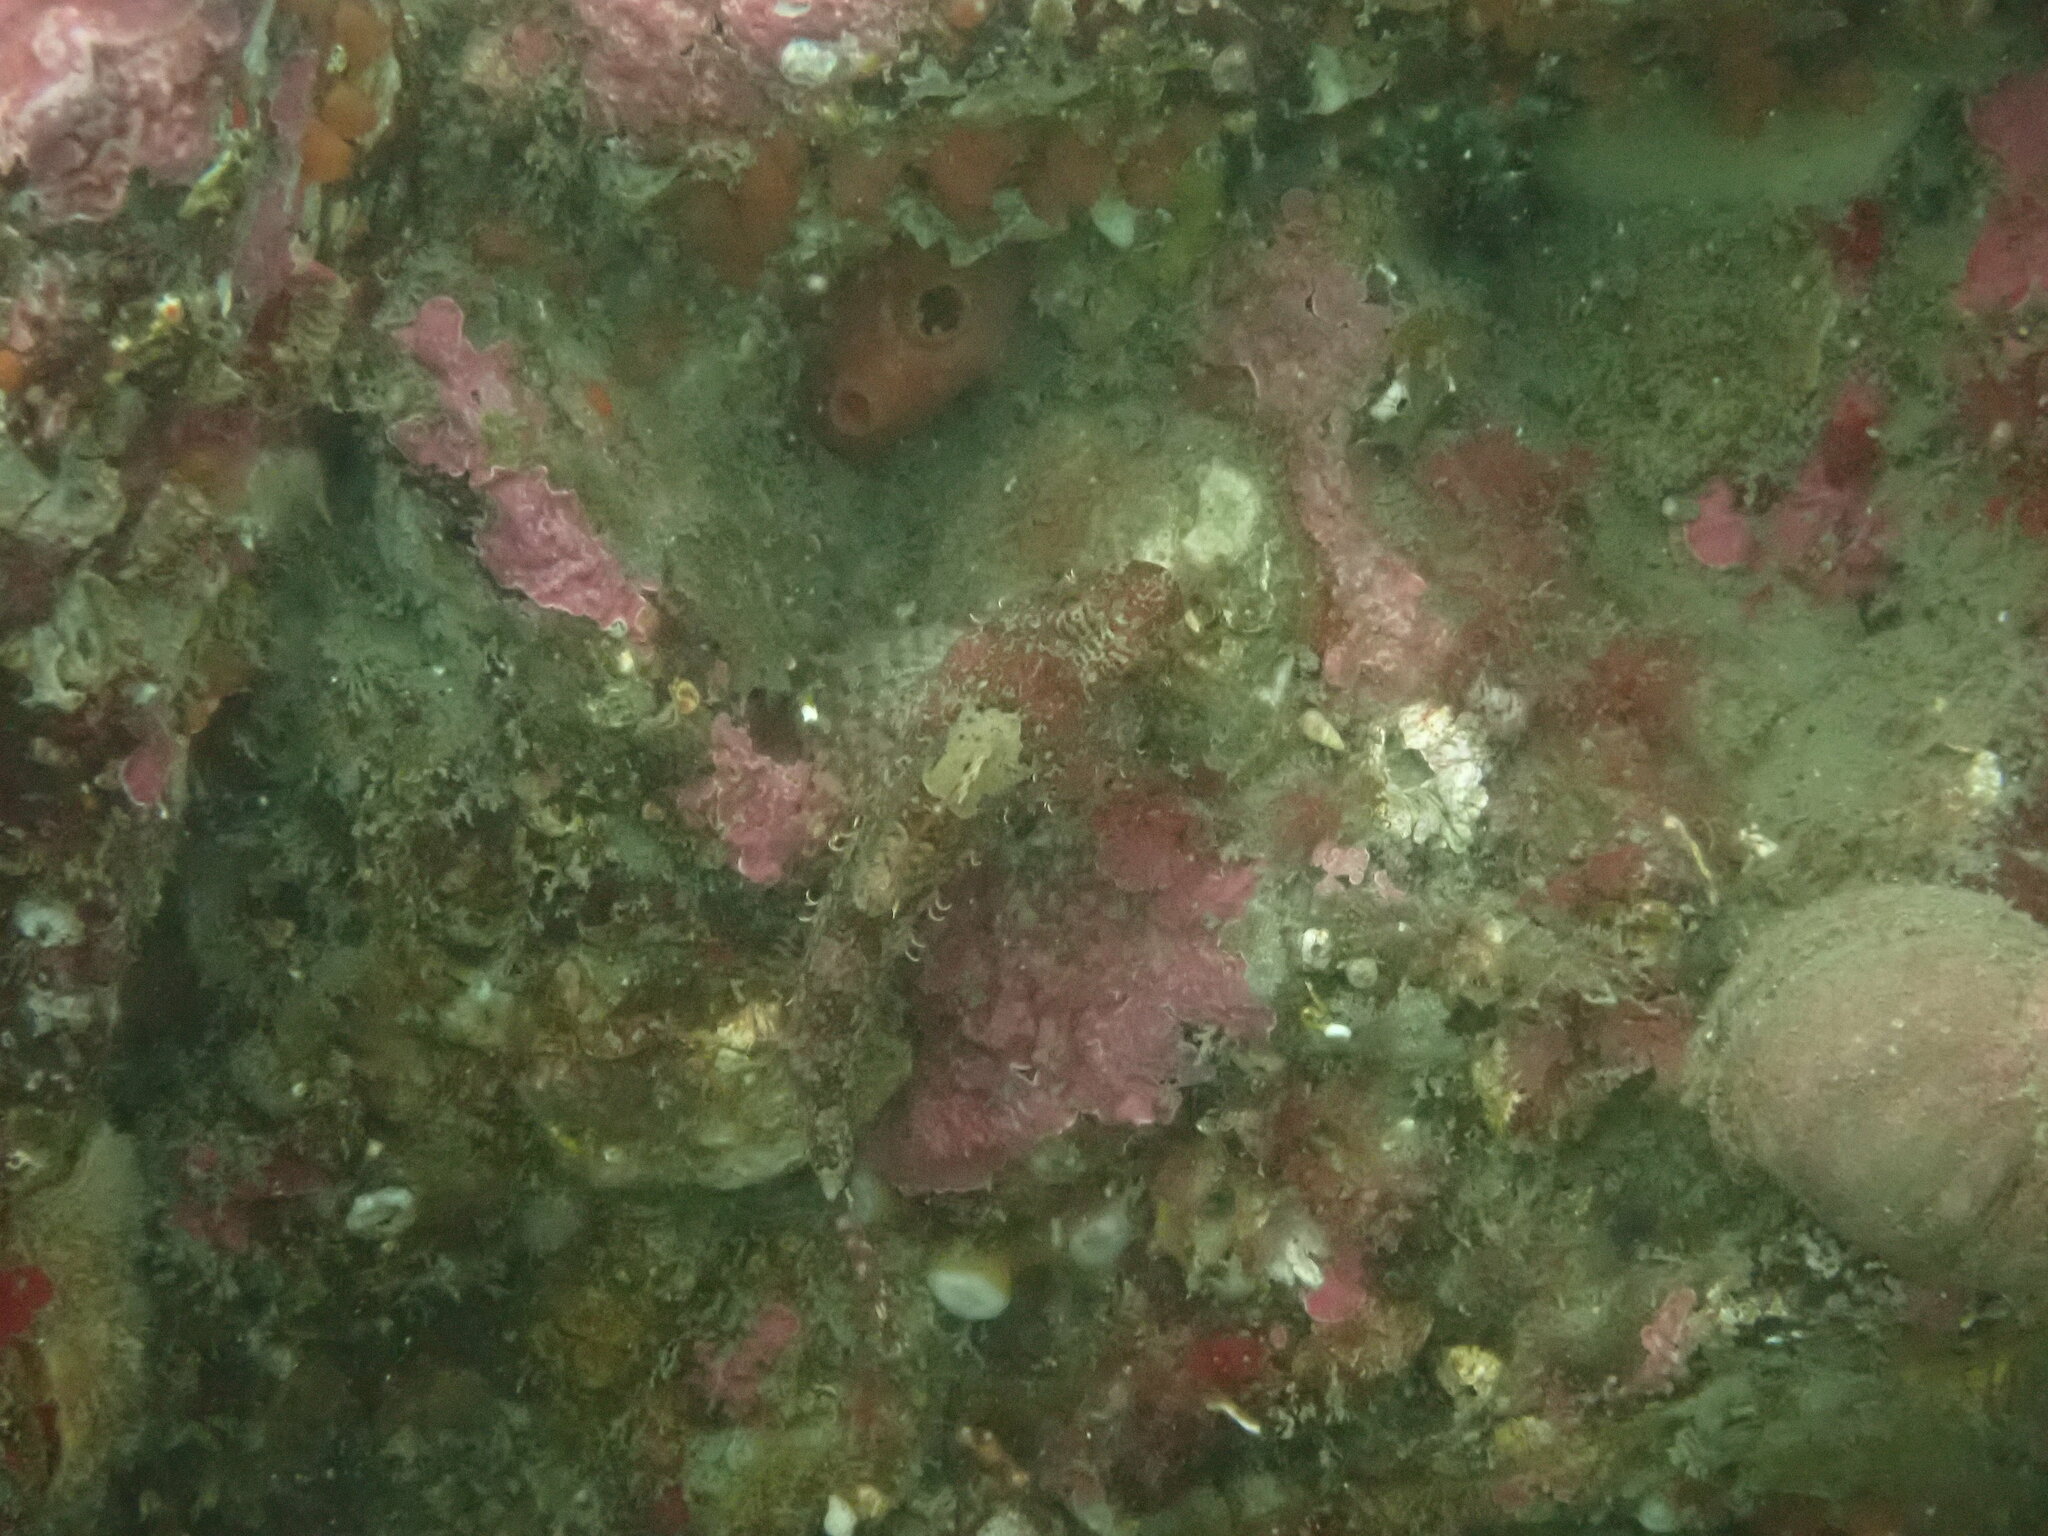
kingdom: Animalia
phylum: Chordata
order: Scorpaeniformes
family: Cottidae
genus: Artedius
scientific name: Artedius harringtoni
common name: Scalyhead sculpin
